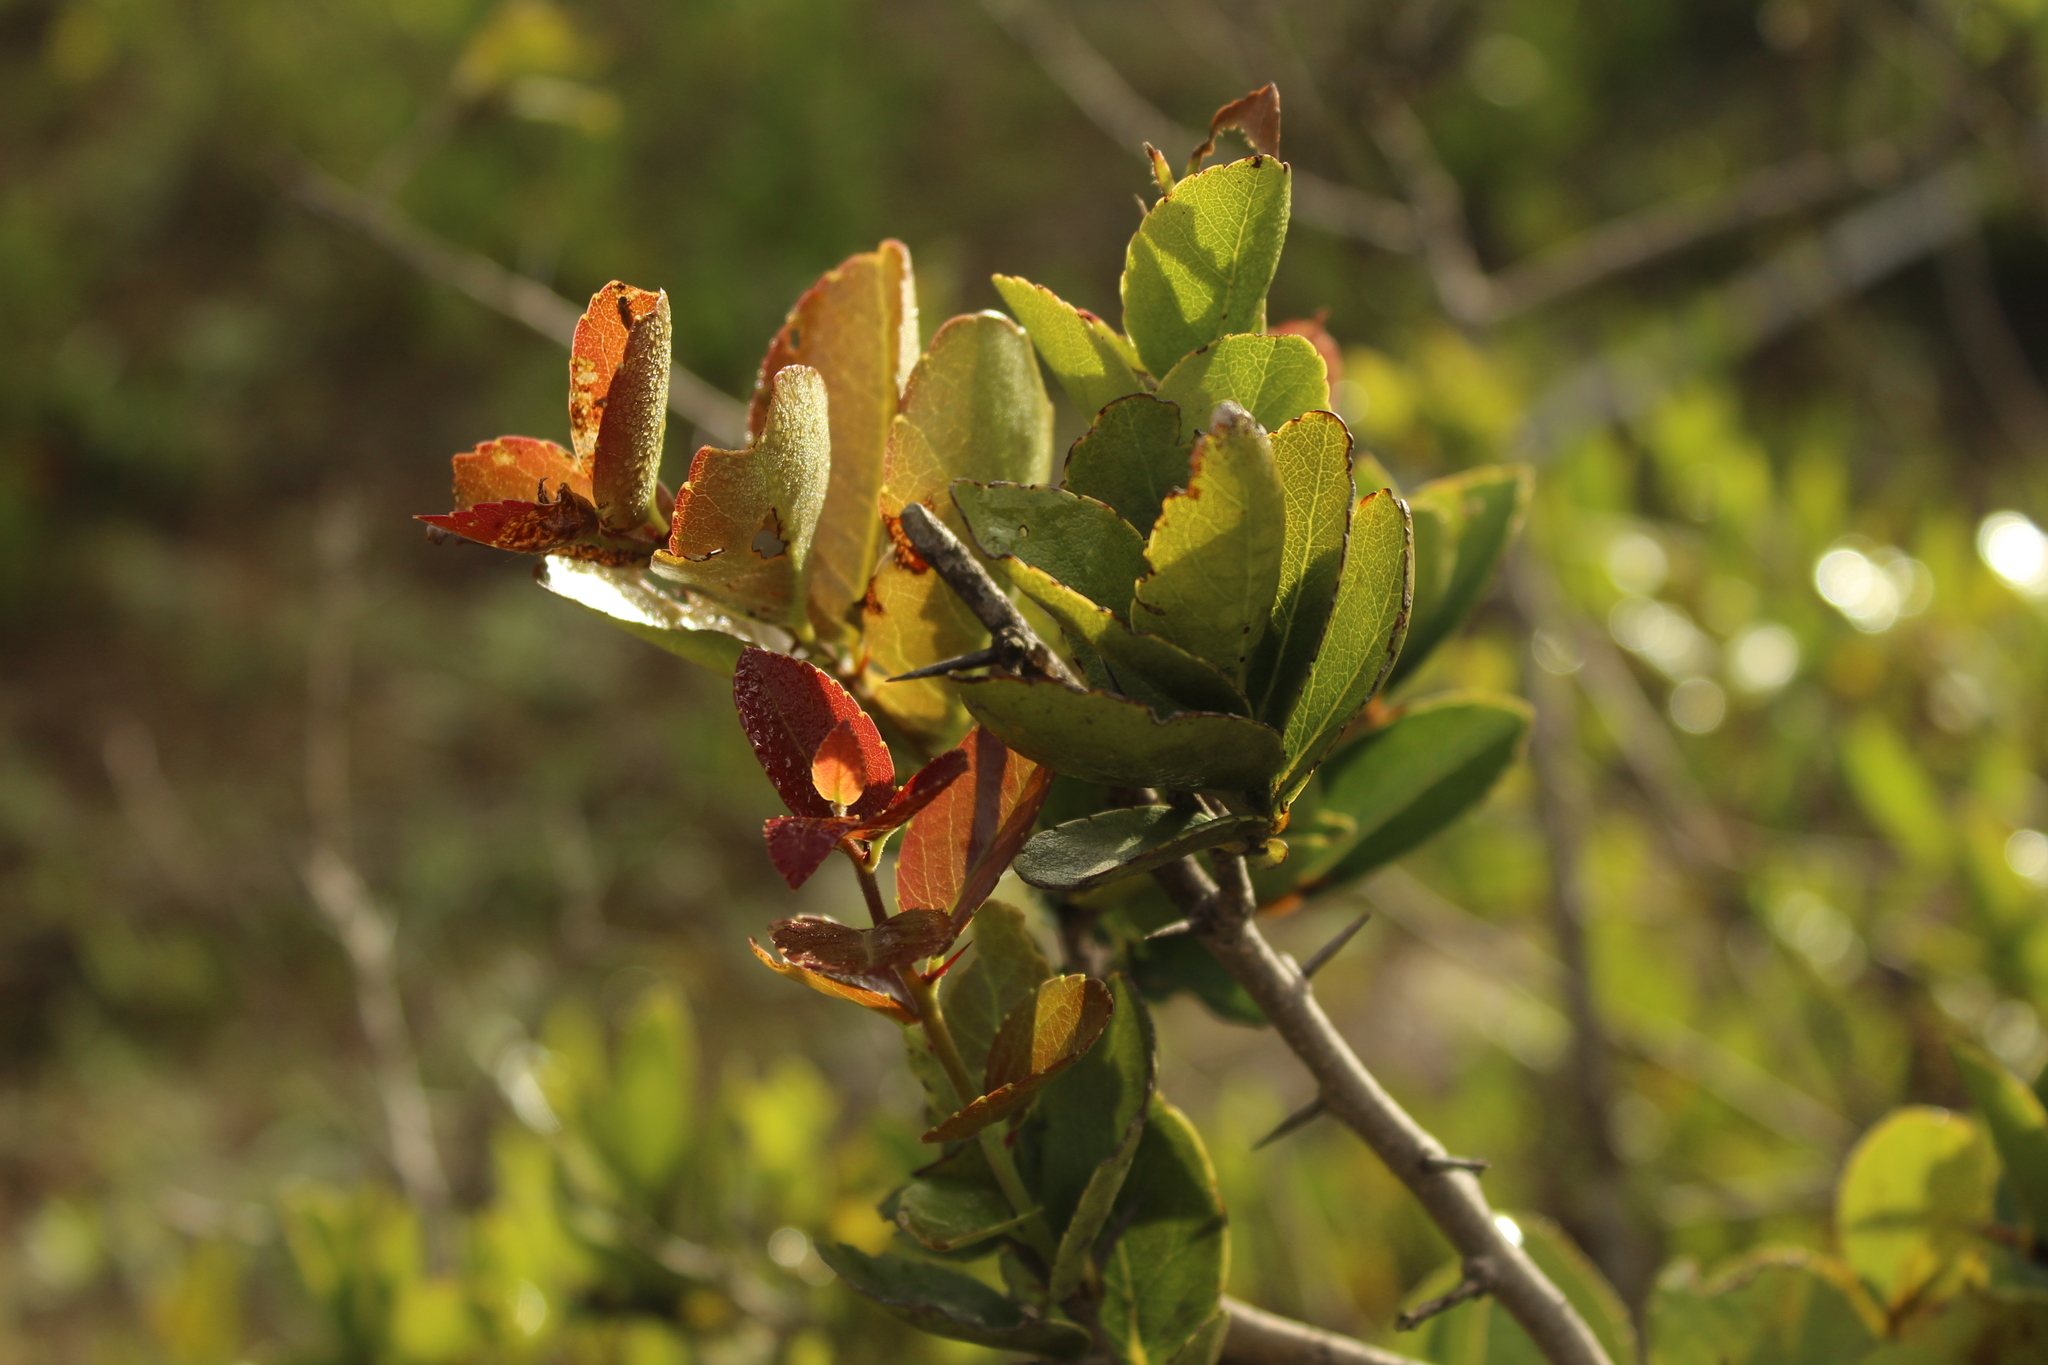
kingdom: Plantae
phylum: Tracheophyta
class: Magnoliopsida
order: Malpighiales
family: Salicaceae
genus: Xylosma
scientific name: Xylosma spiculifera
